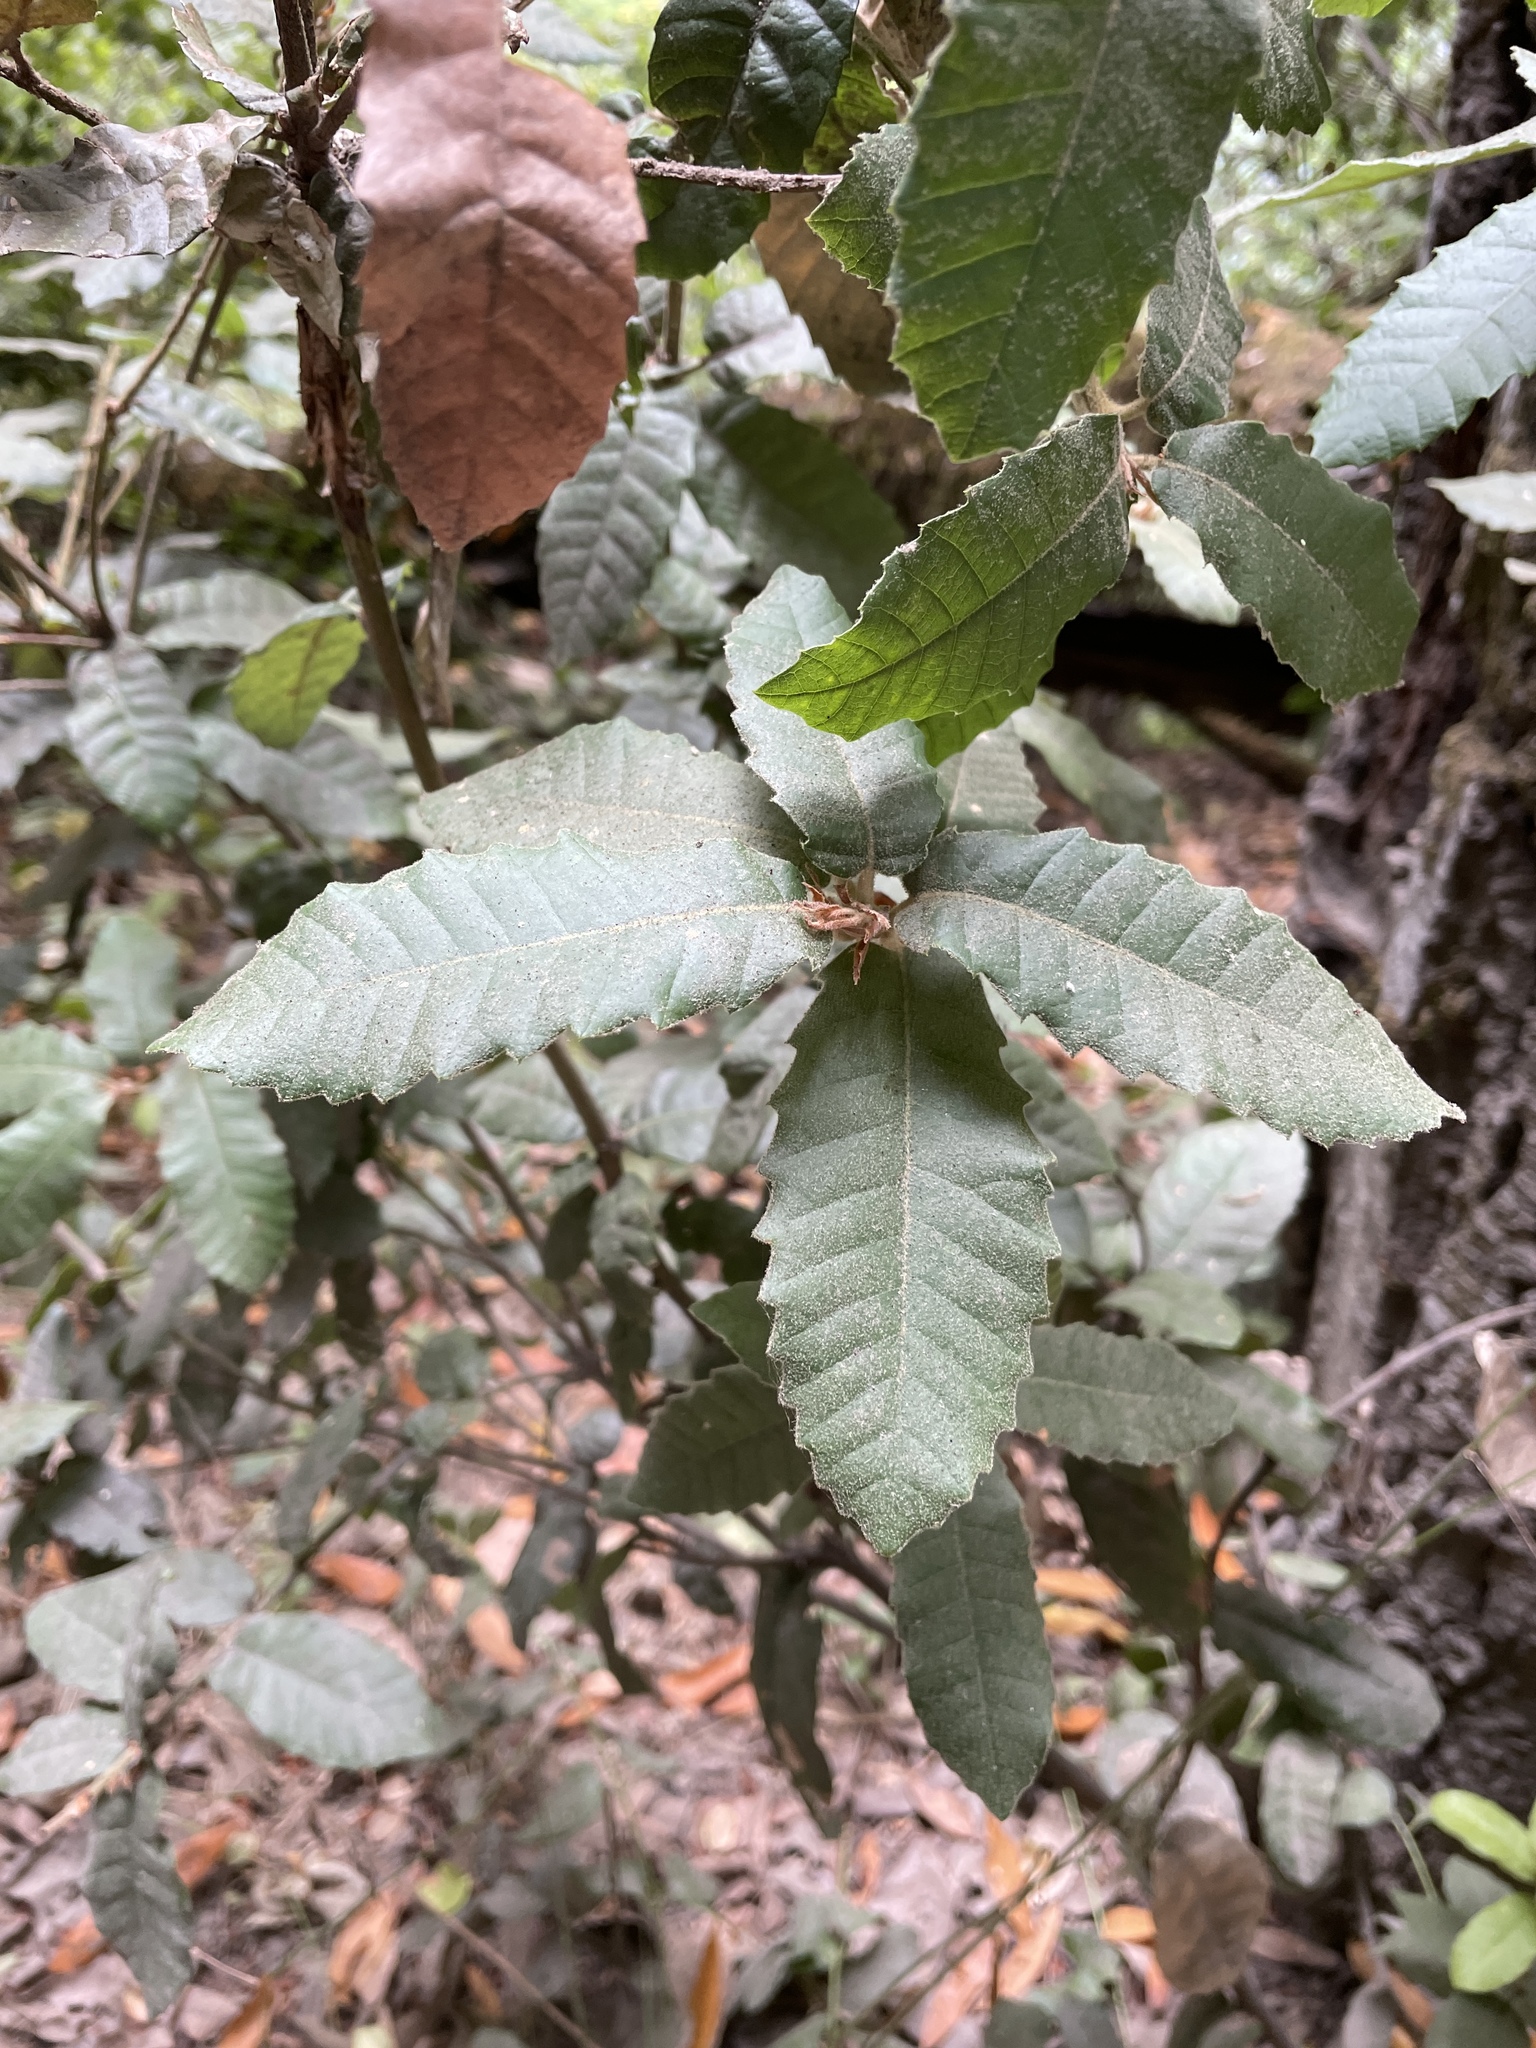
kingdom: Plantae
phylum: Tracheophyta
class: Magnoliopsida
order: Fagales
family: Fagaceae
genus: Notholithocarpus
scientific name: Notholithocarpus densiflorus
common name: Tan bark oak
